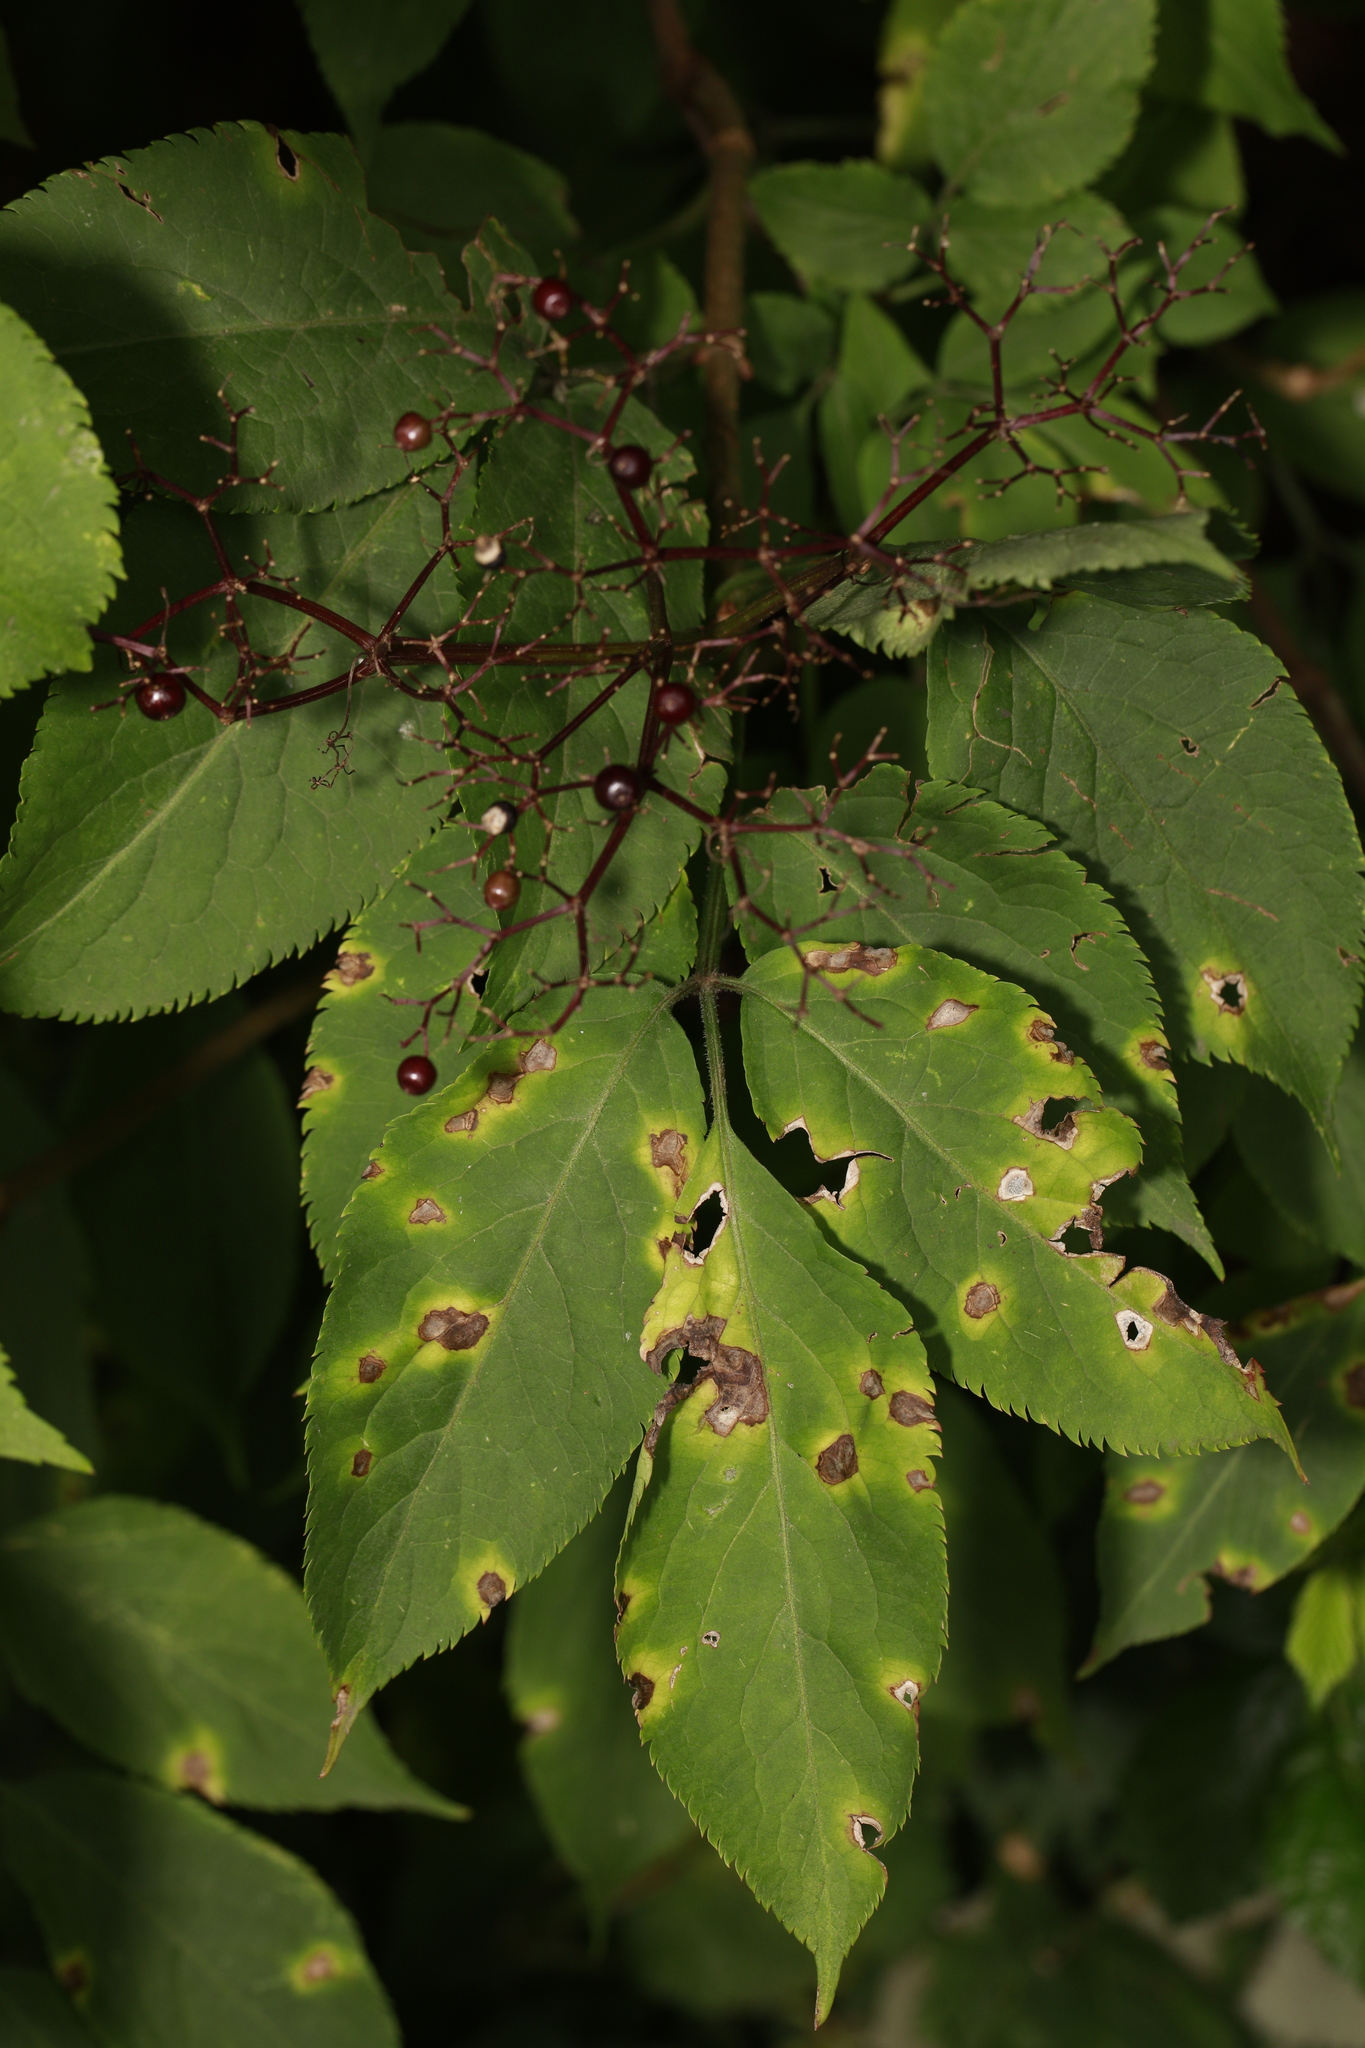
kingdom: Plantae
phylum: Tracheophyta
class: Magnoliopsida
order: Dipsacales
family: Viburnaceae
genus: Sambucus
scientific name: Sambucus nigra
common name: Elder
